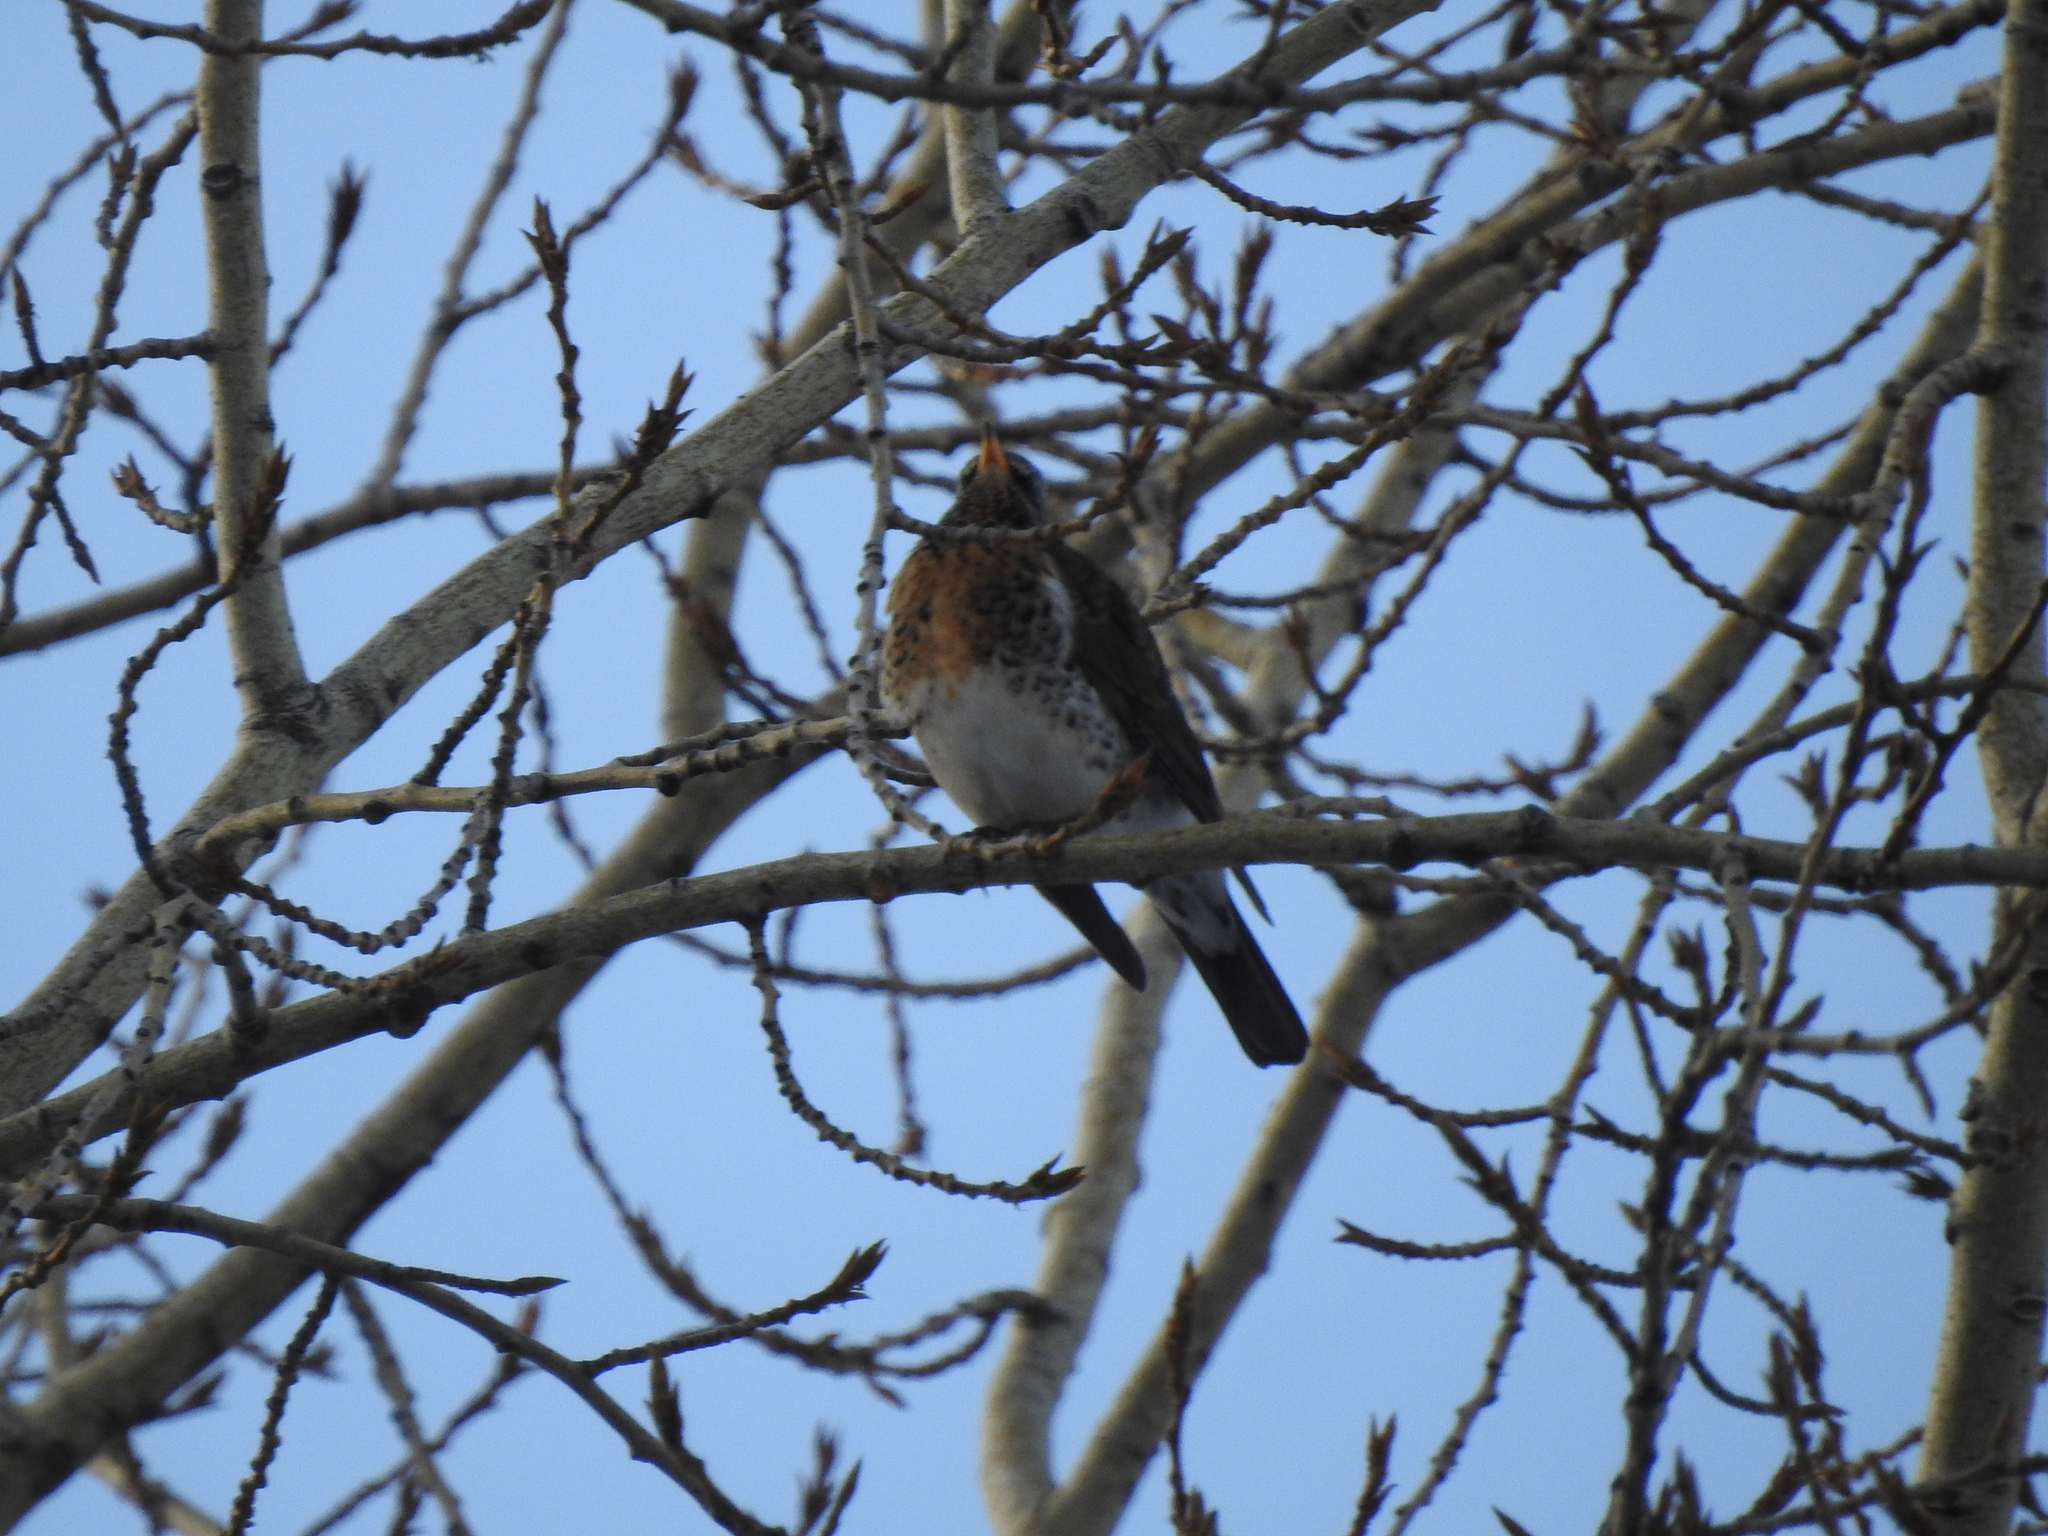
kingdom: Animalia
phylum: Chordata
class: Aves
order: Passeriformes
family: Turdidae
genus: Turdus
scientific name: Turdus pilaris
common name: Fieldfare
